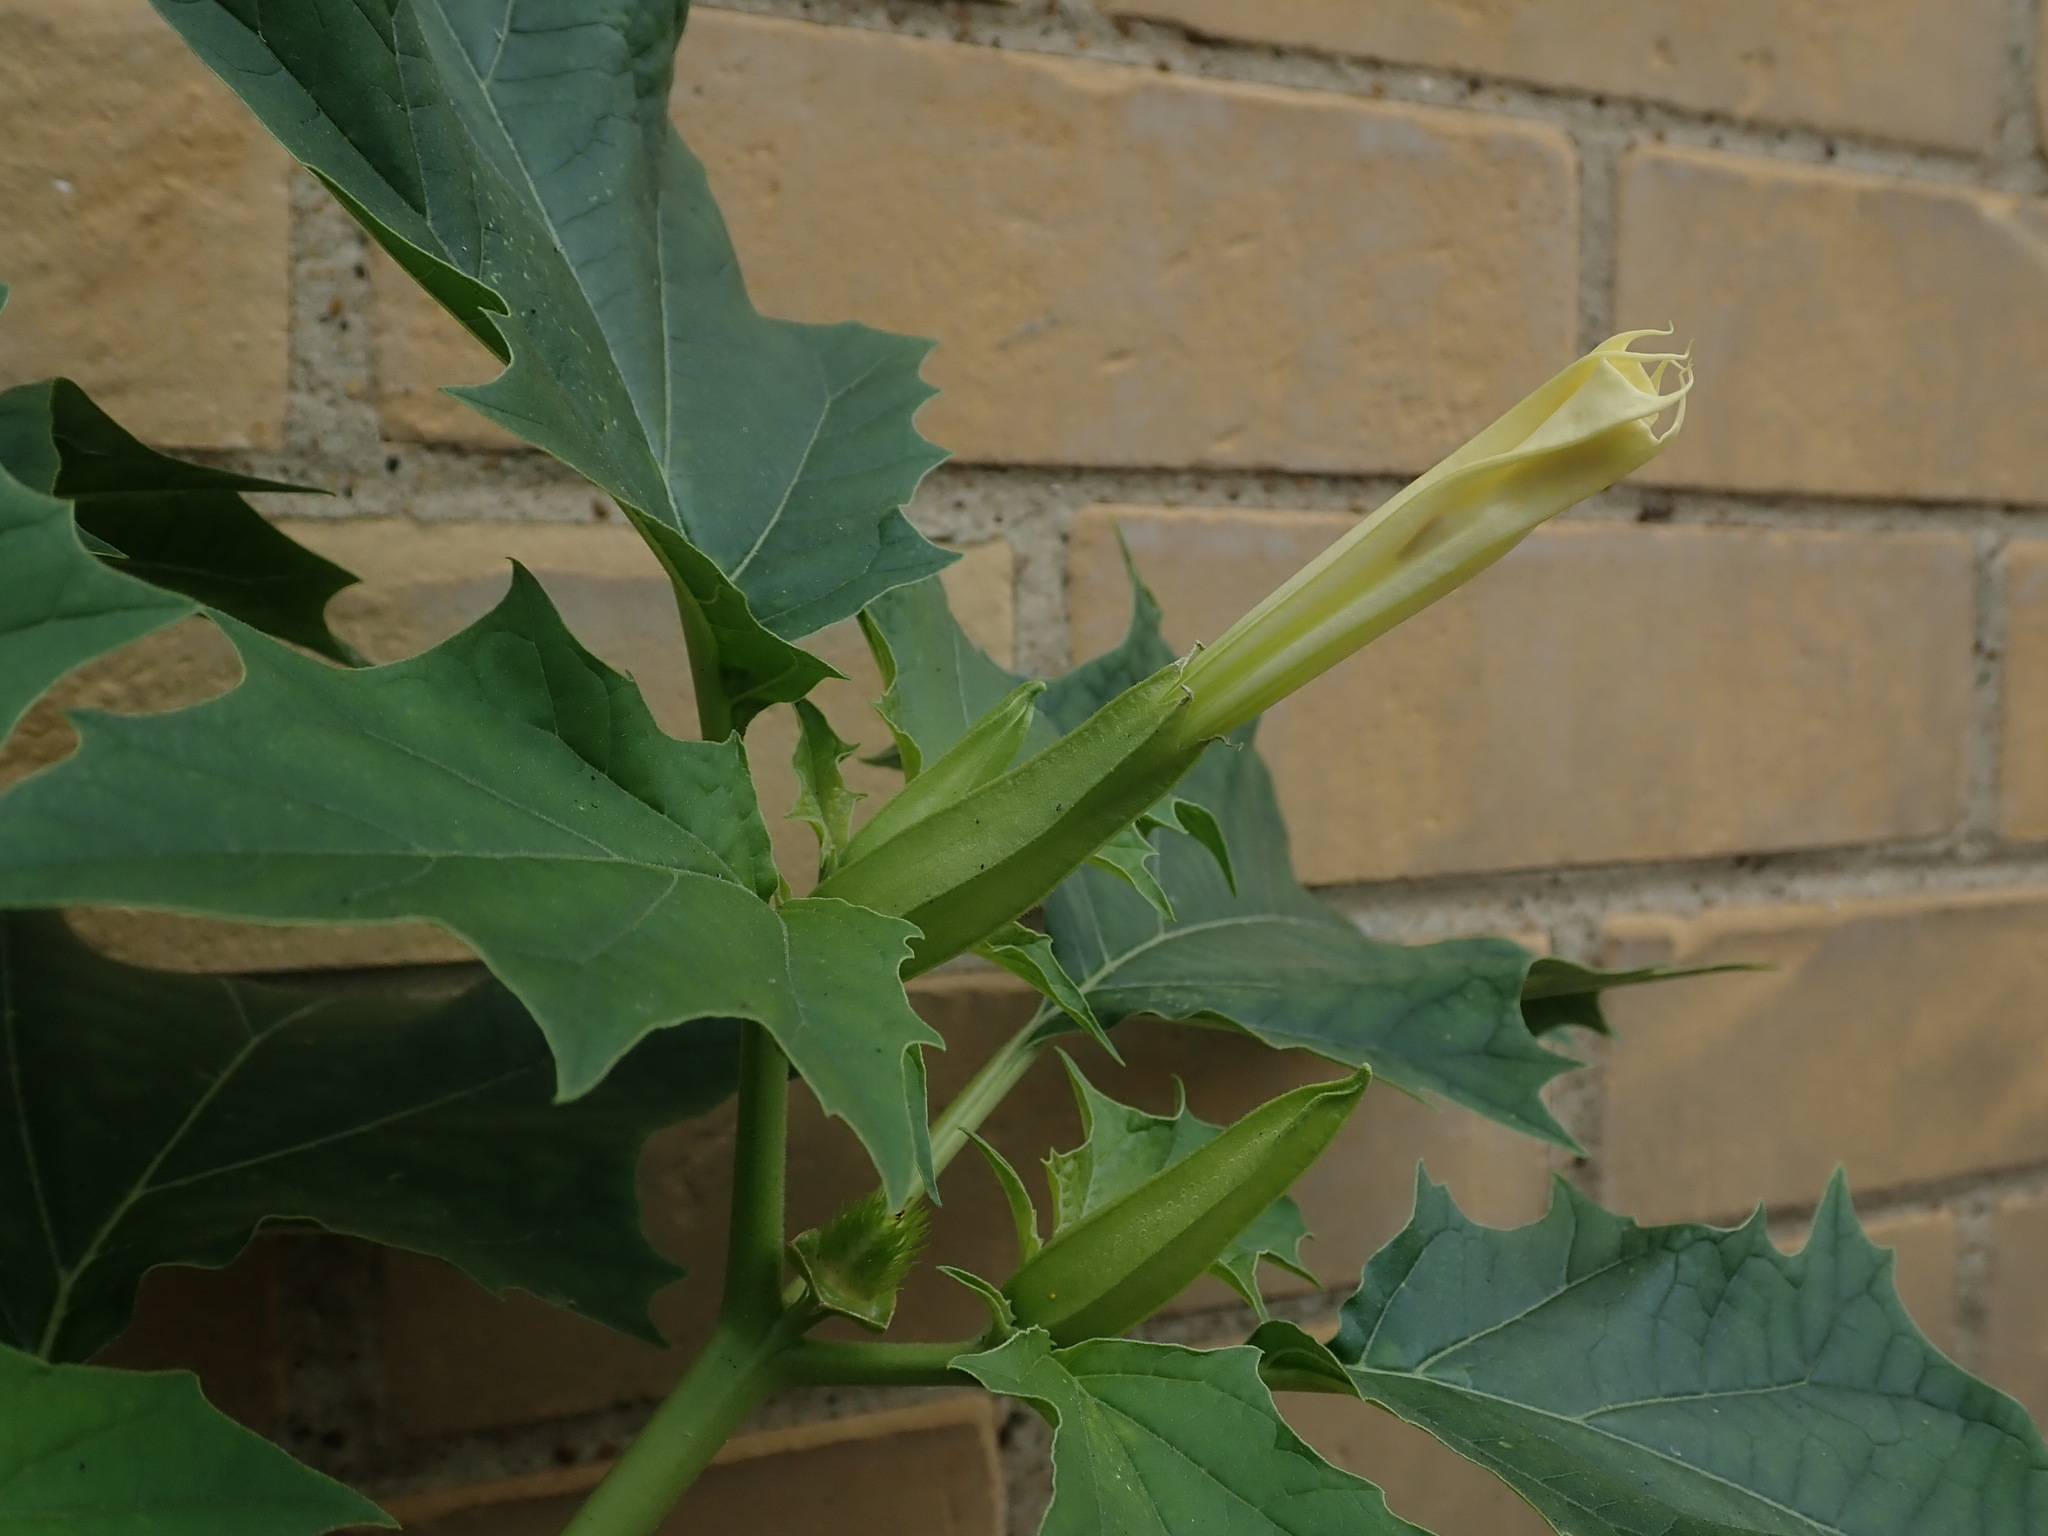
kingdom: Plantae
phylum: Tracheophyta
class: Magnoliopsida
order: Solanales
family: Solanaceae
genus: Datura
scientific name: Datura stramonium
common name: Thorn-apple
